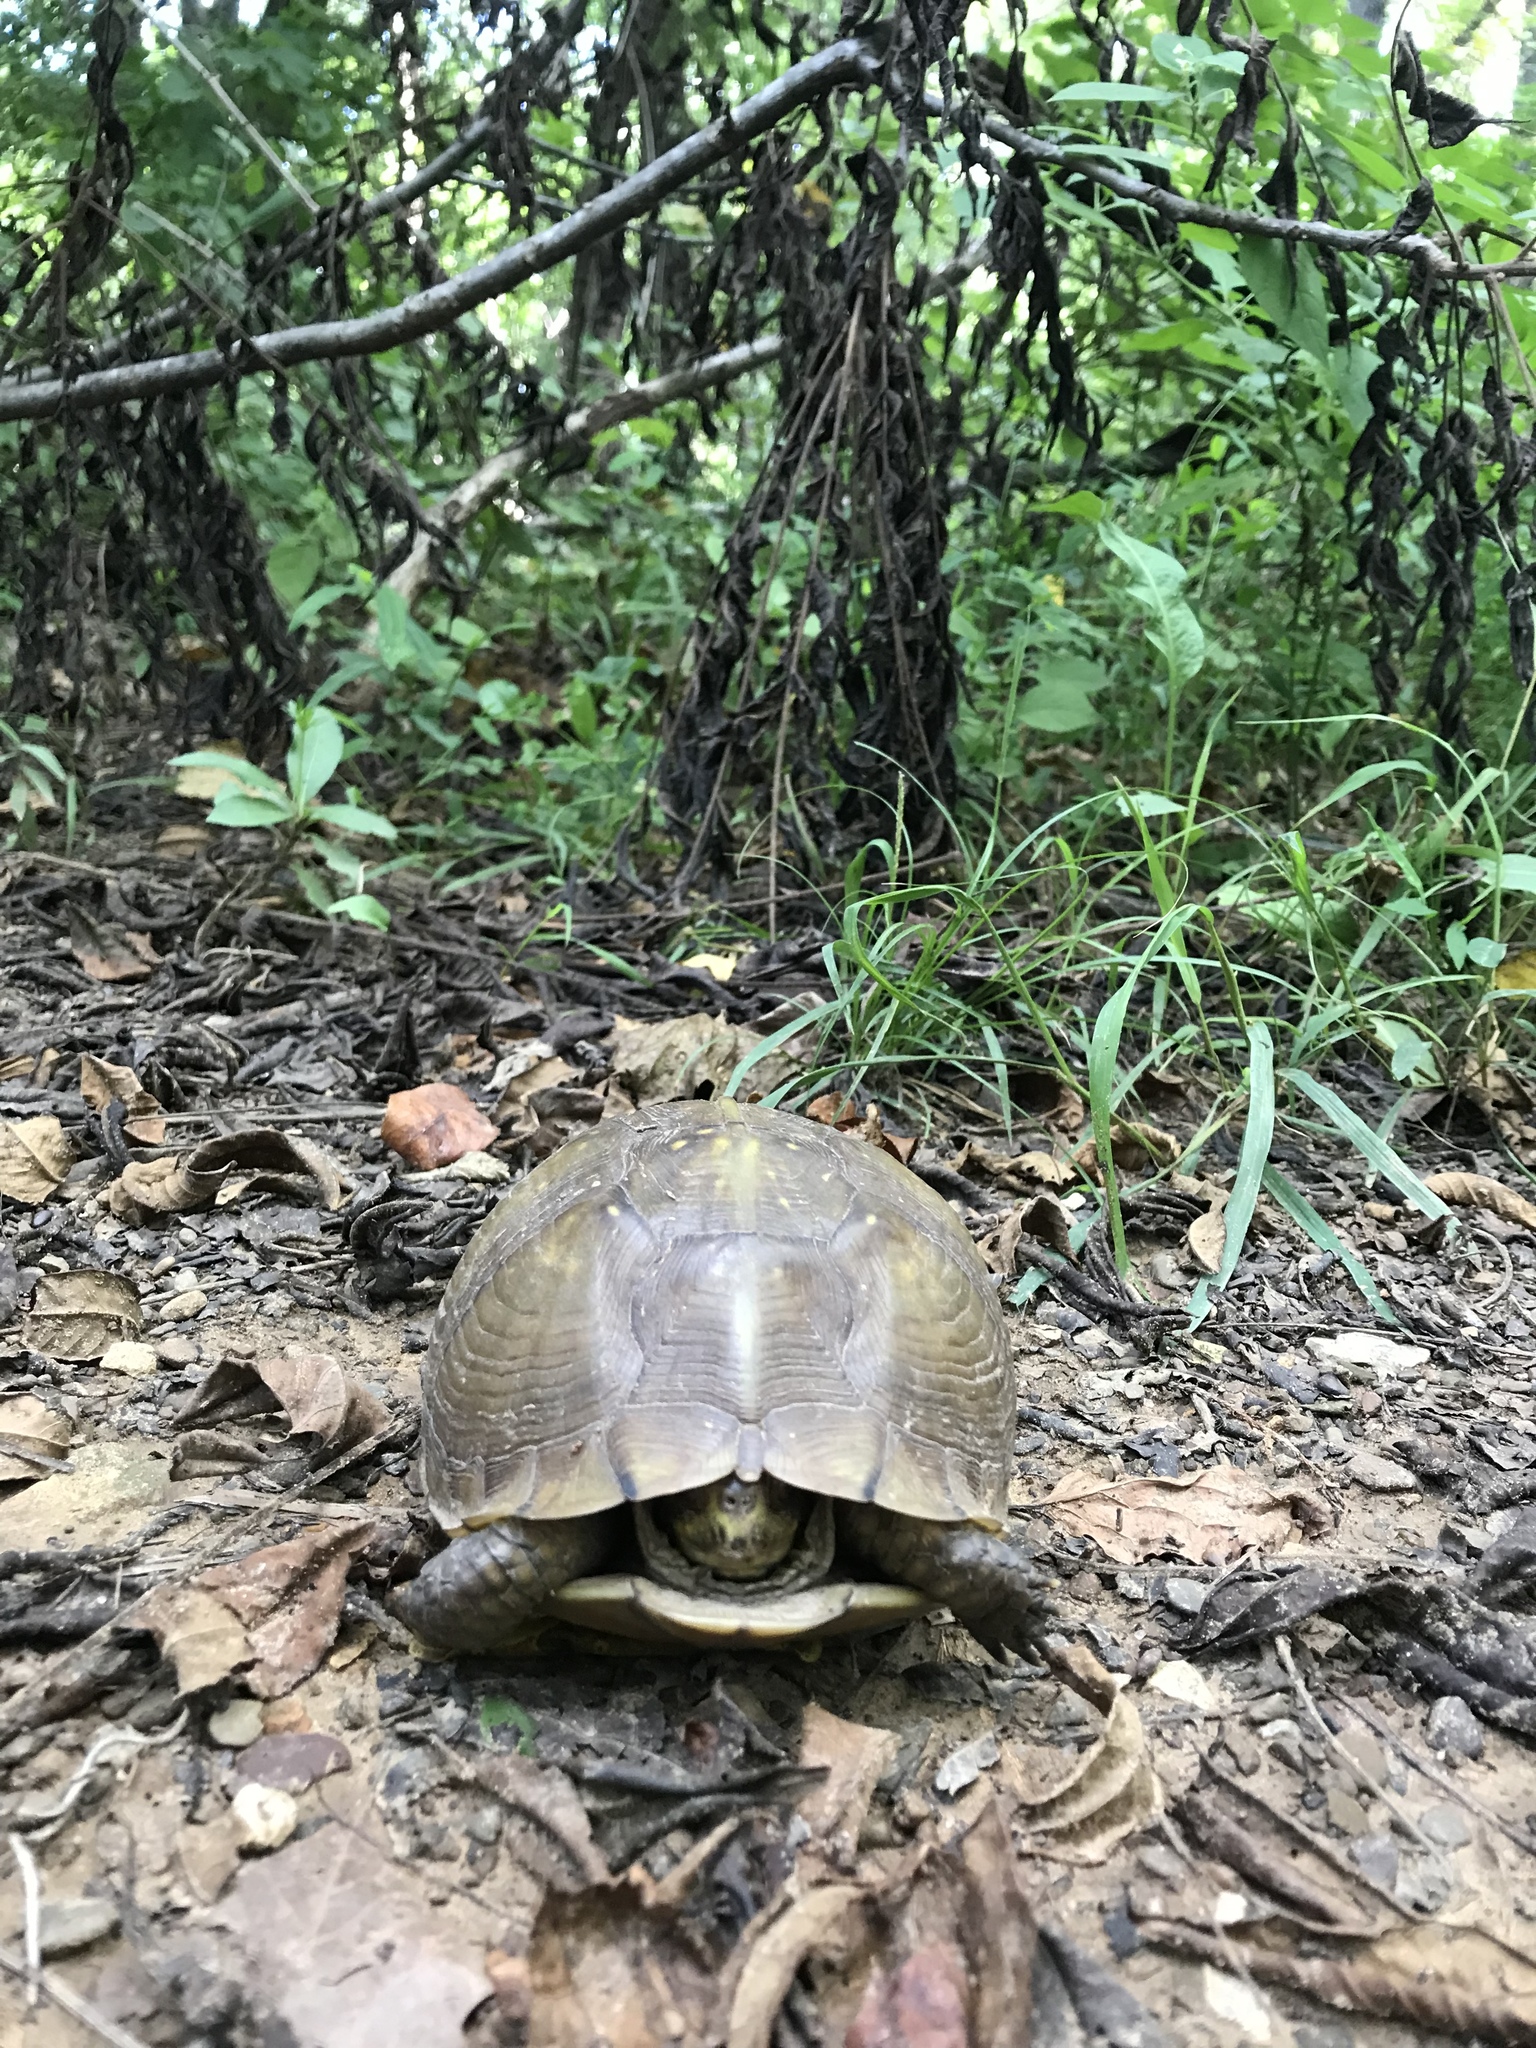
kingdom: Animalia
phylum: Chordata
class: Testudines
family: Emydidae
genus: Terrapene
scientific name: Terrapene carolina
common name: Common box turtle
